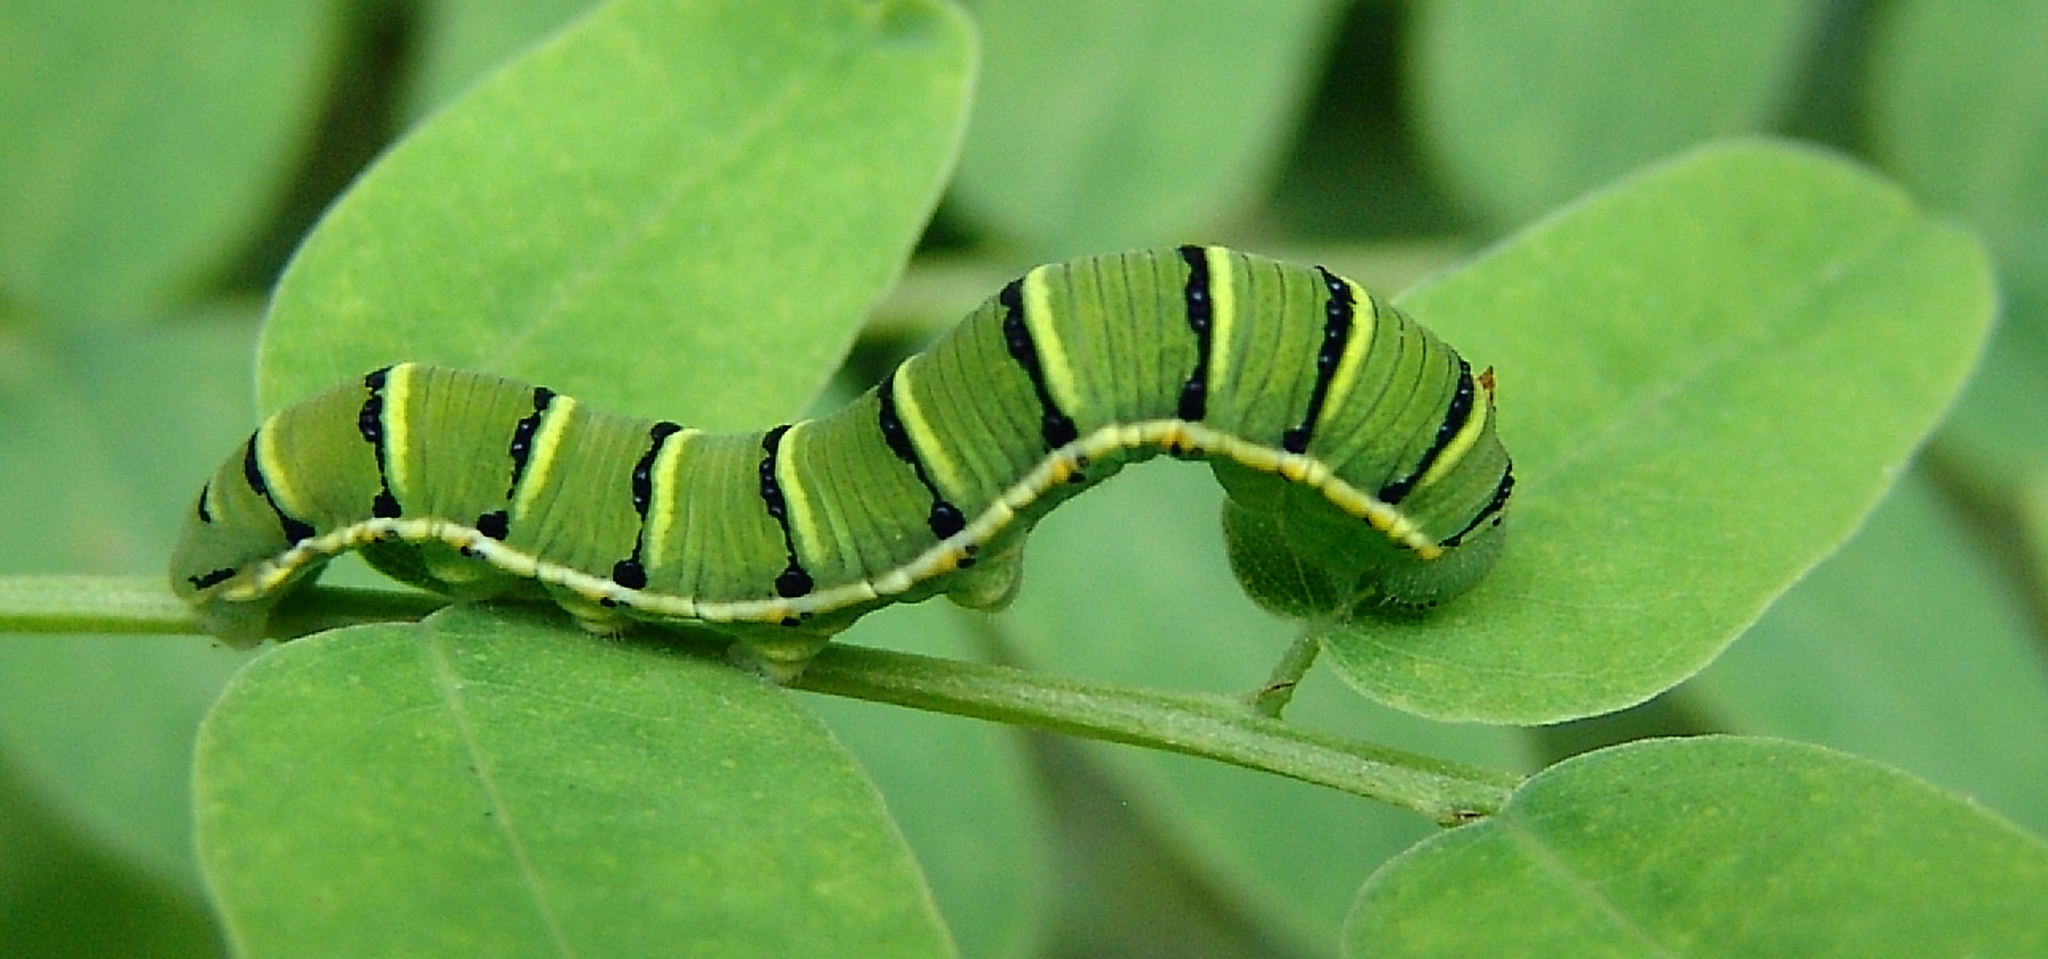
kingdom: Animalia
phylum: Arthropoda
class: Insecta
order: Lepidoptera
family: Pieridae
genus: Zerene
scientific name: Zerene cesonia
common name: Southern dogface
